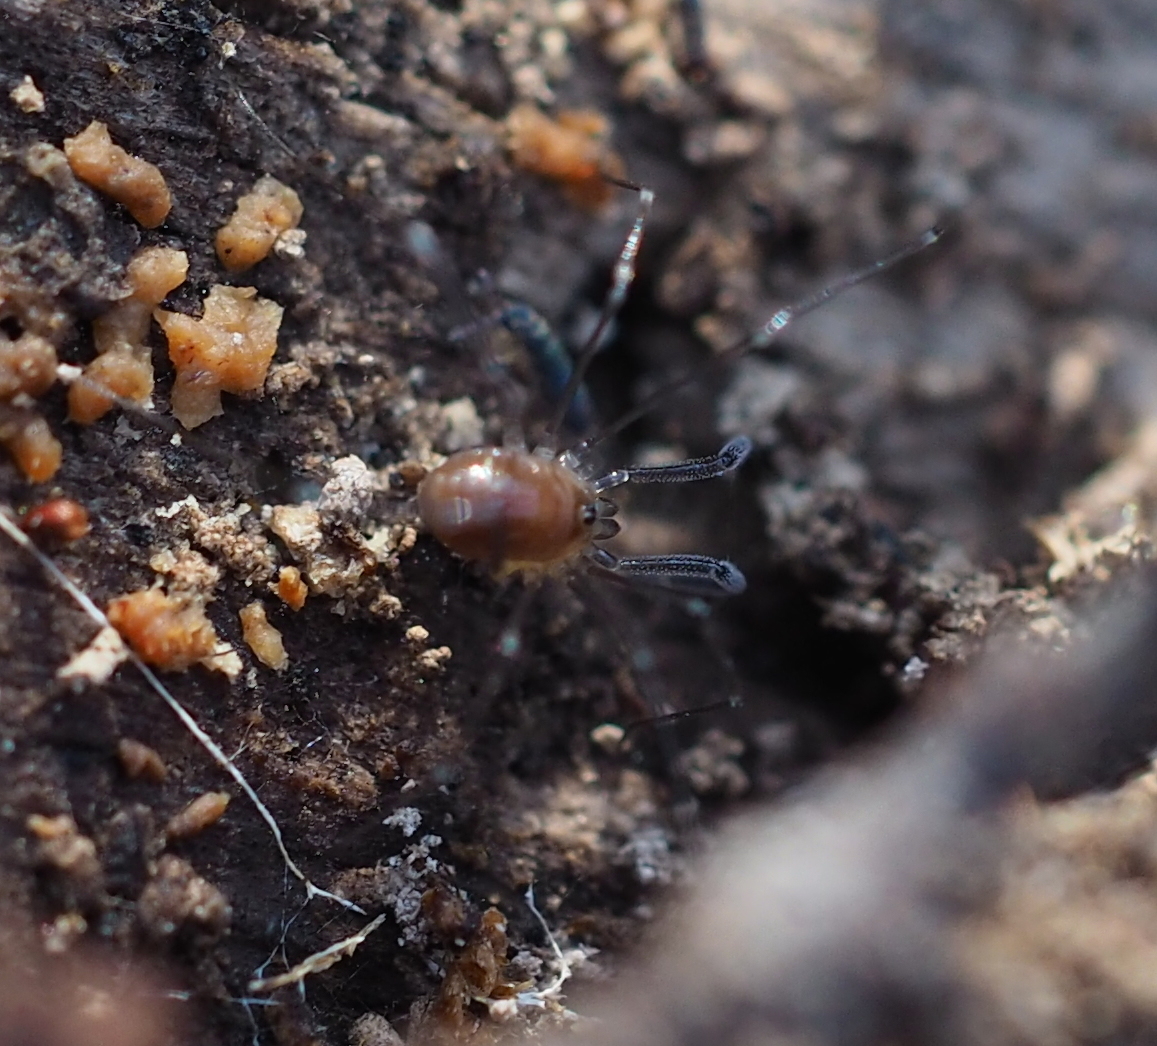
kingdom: Animalia
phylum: Arthropoda
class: Arachnida
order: Opiliones
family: Nemastomatidae
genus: Mitostoma
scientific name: Mitostoma chrysomelas
